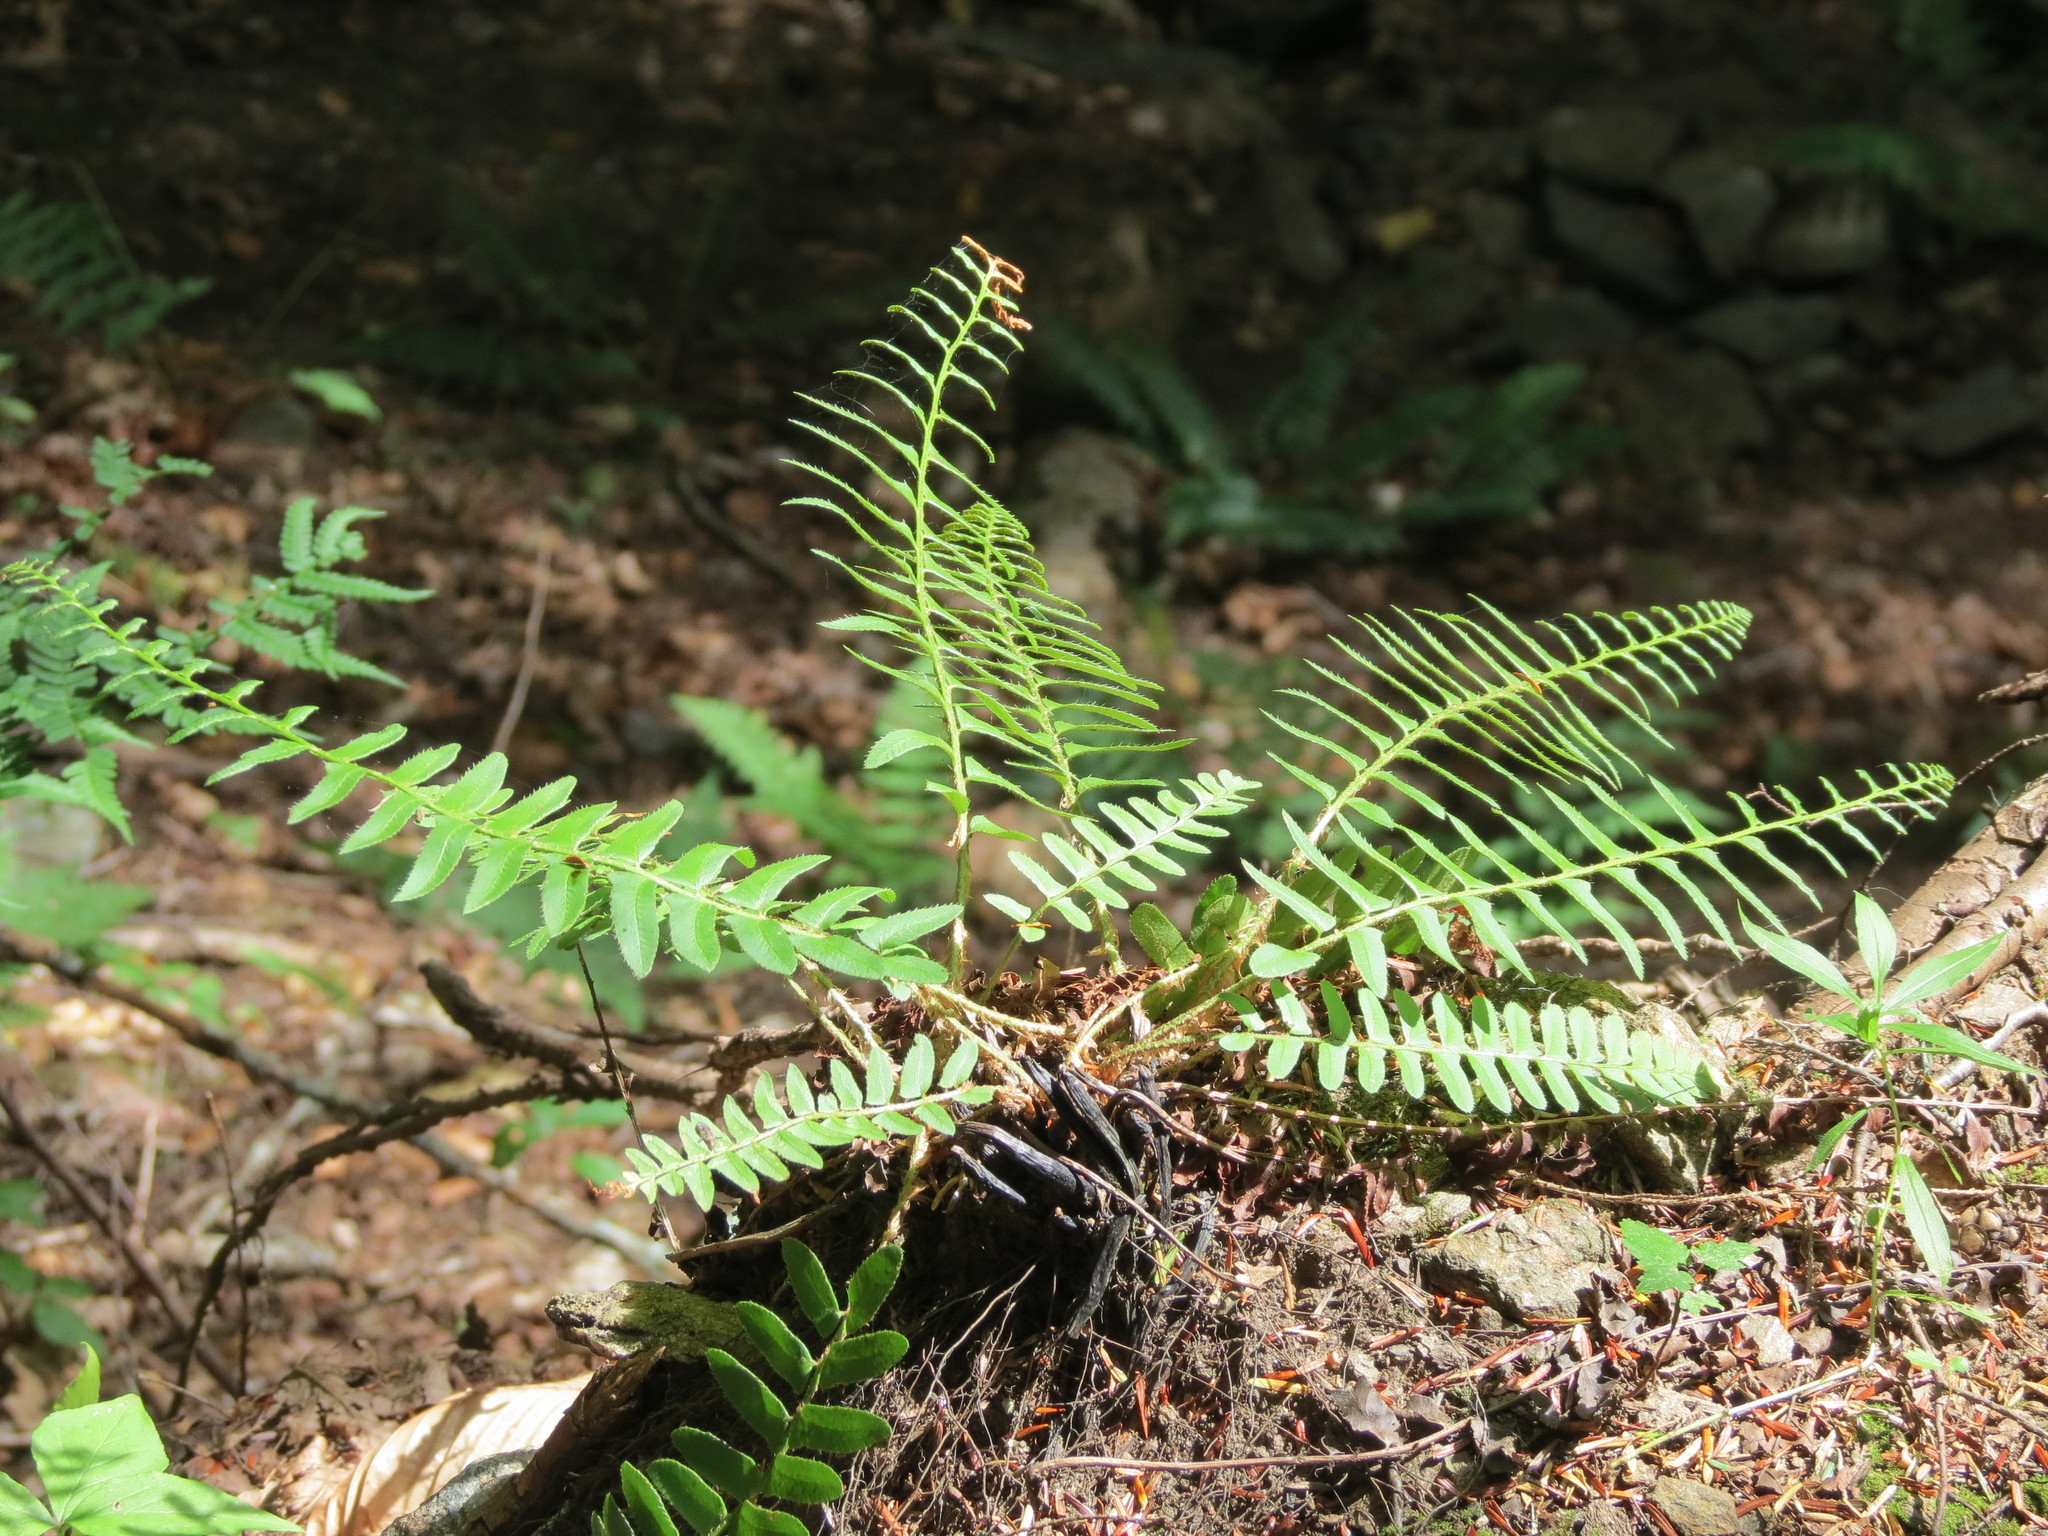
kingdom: Plantae
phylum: Tracheophyta
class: Polypodiopsida
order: Polypodiales
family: Dryopteridaceae
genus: Polystichum
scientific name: Polystichum acrostichoides
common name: Christmas fern
